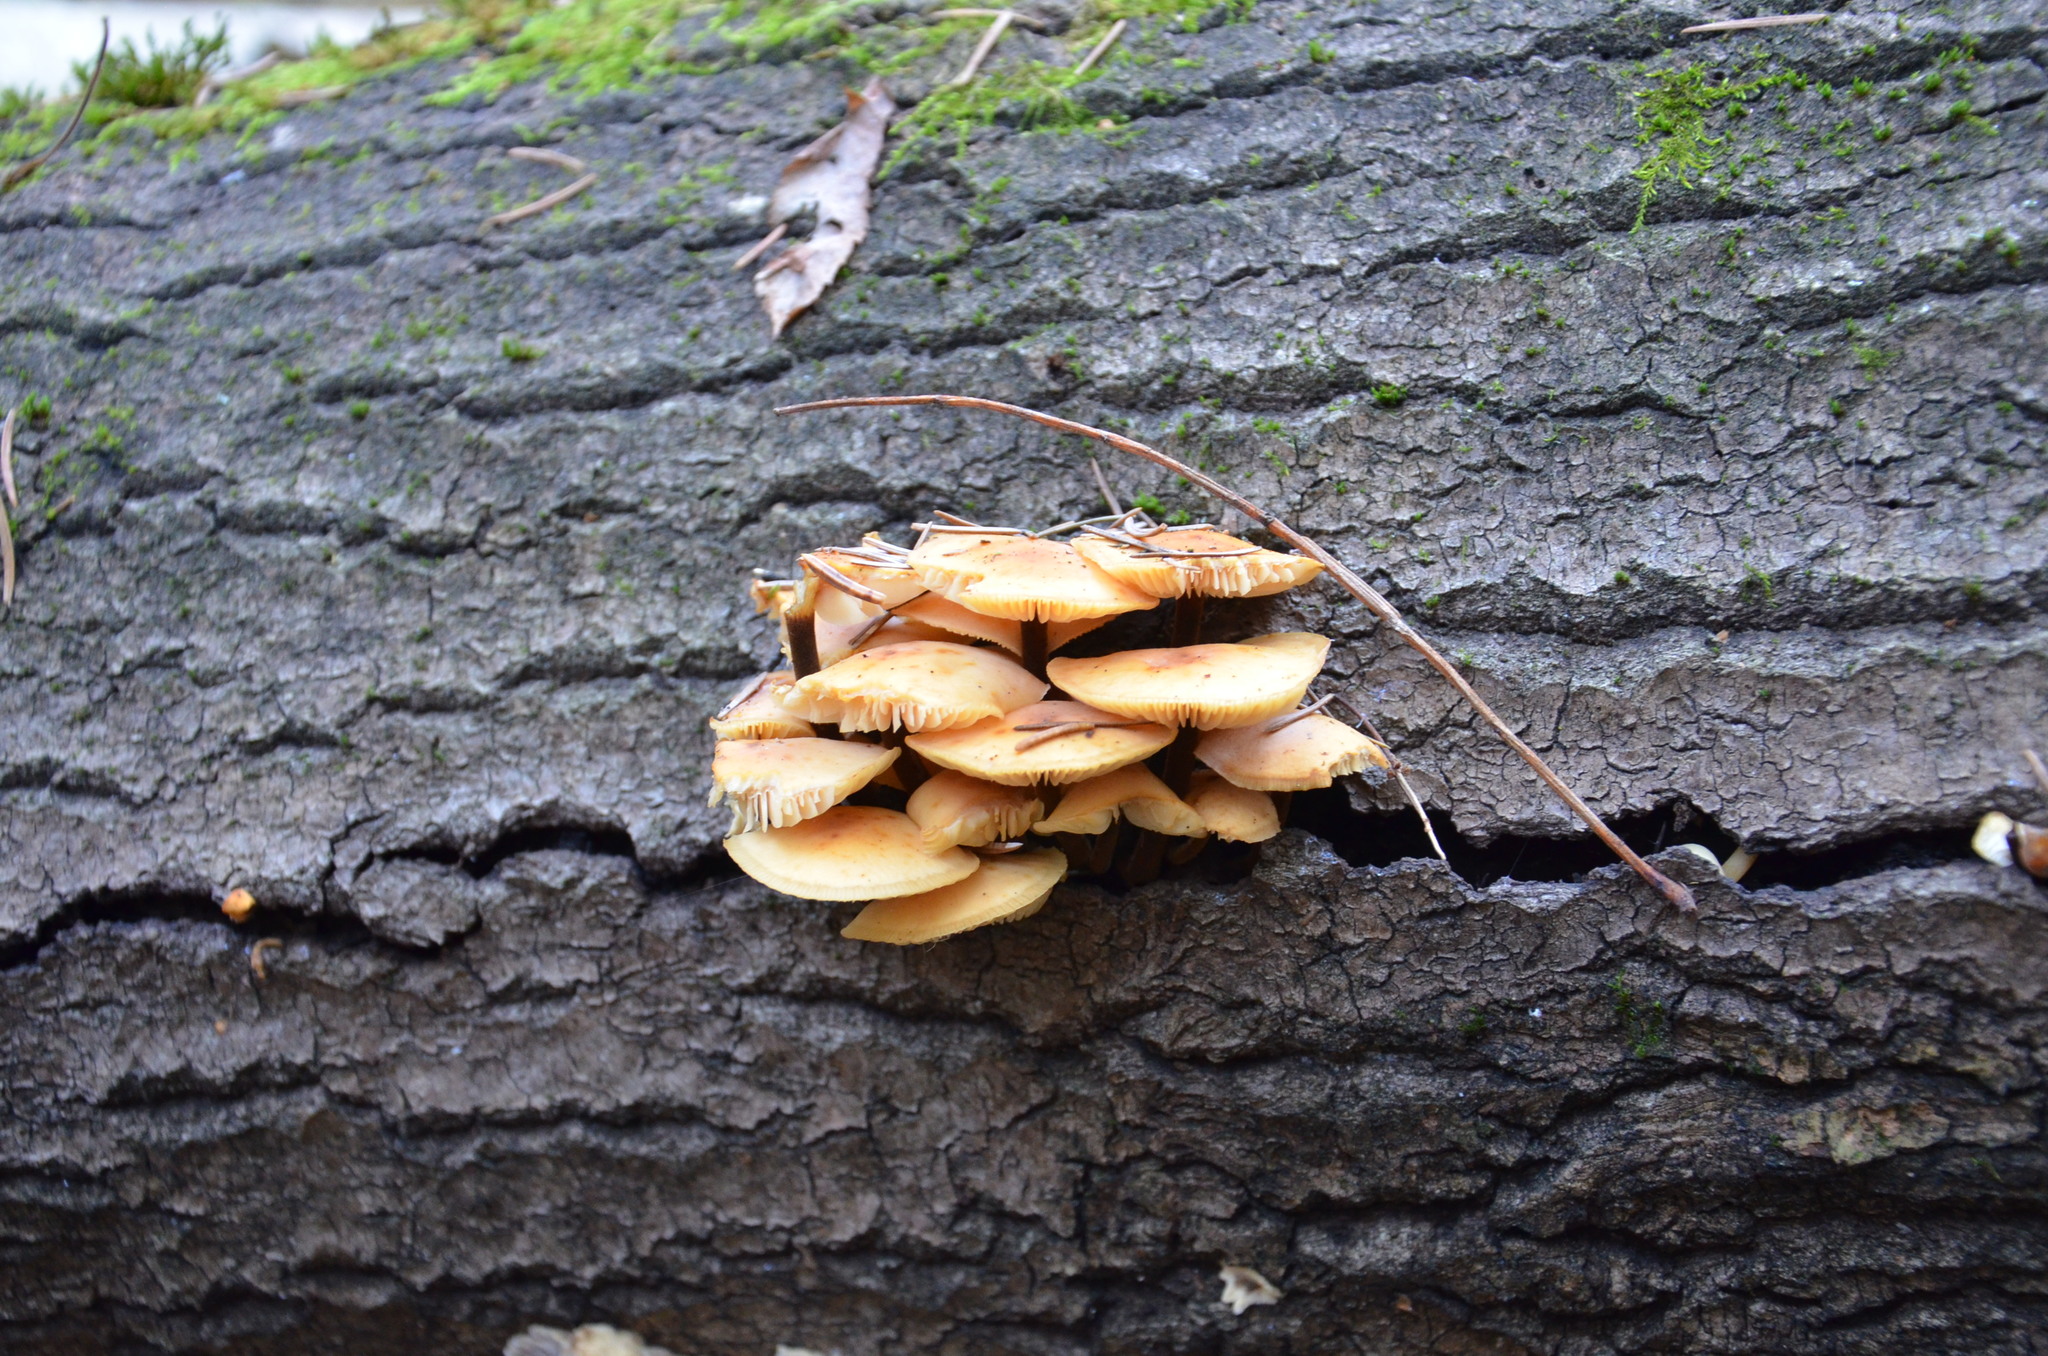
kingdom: Fungi
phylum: Basidiomycota
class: Agaricomycetes
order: Agaricales
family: Physalacriaceae
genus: Flammulina
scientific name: Flammulina
